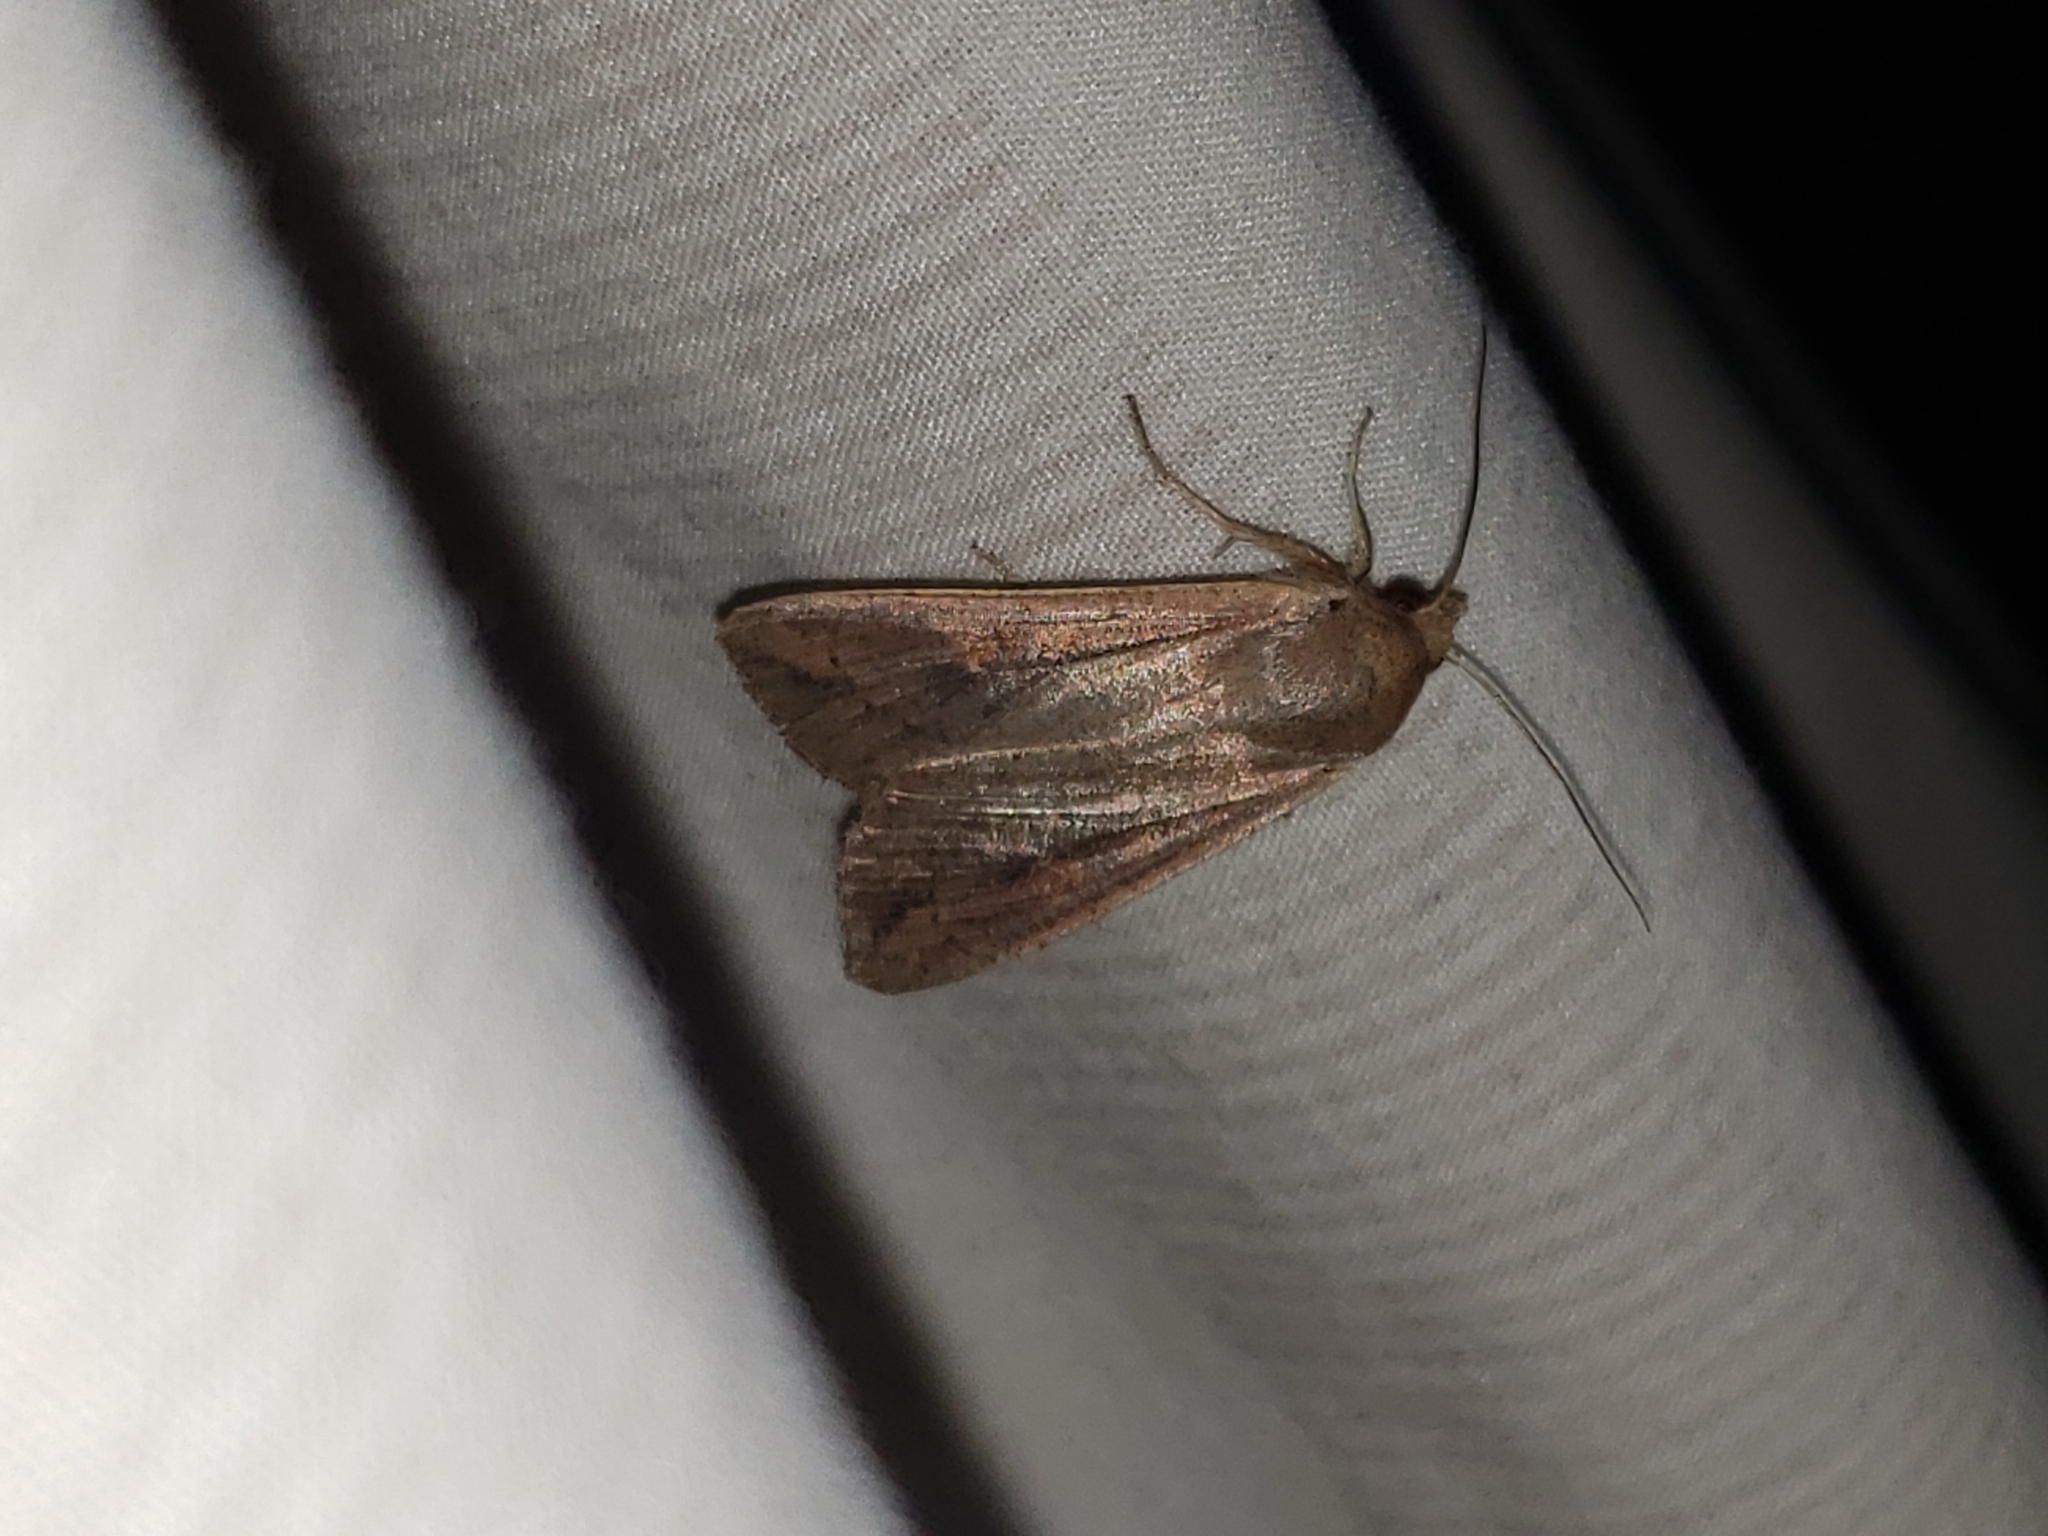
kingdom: Animalia
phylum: Arthropoda
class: Insecta
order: Lepidoptera
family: Noctuidae
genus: Mythimna
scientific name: Mythimna unipuncta
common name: White-speck
